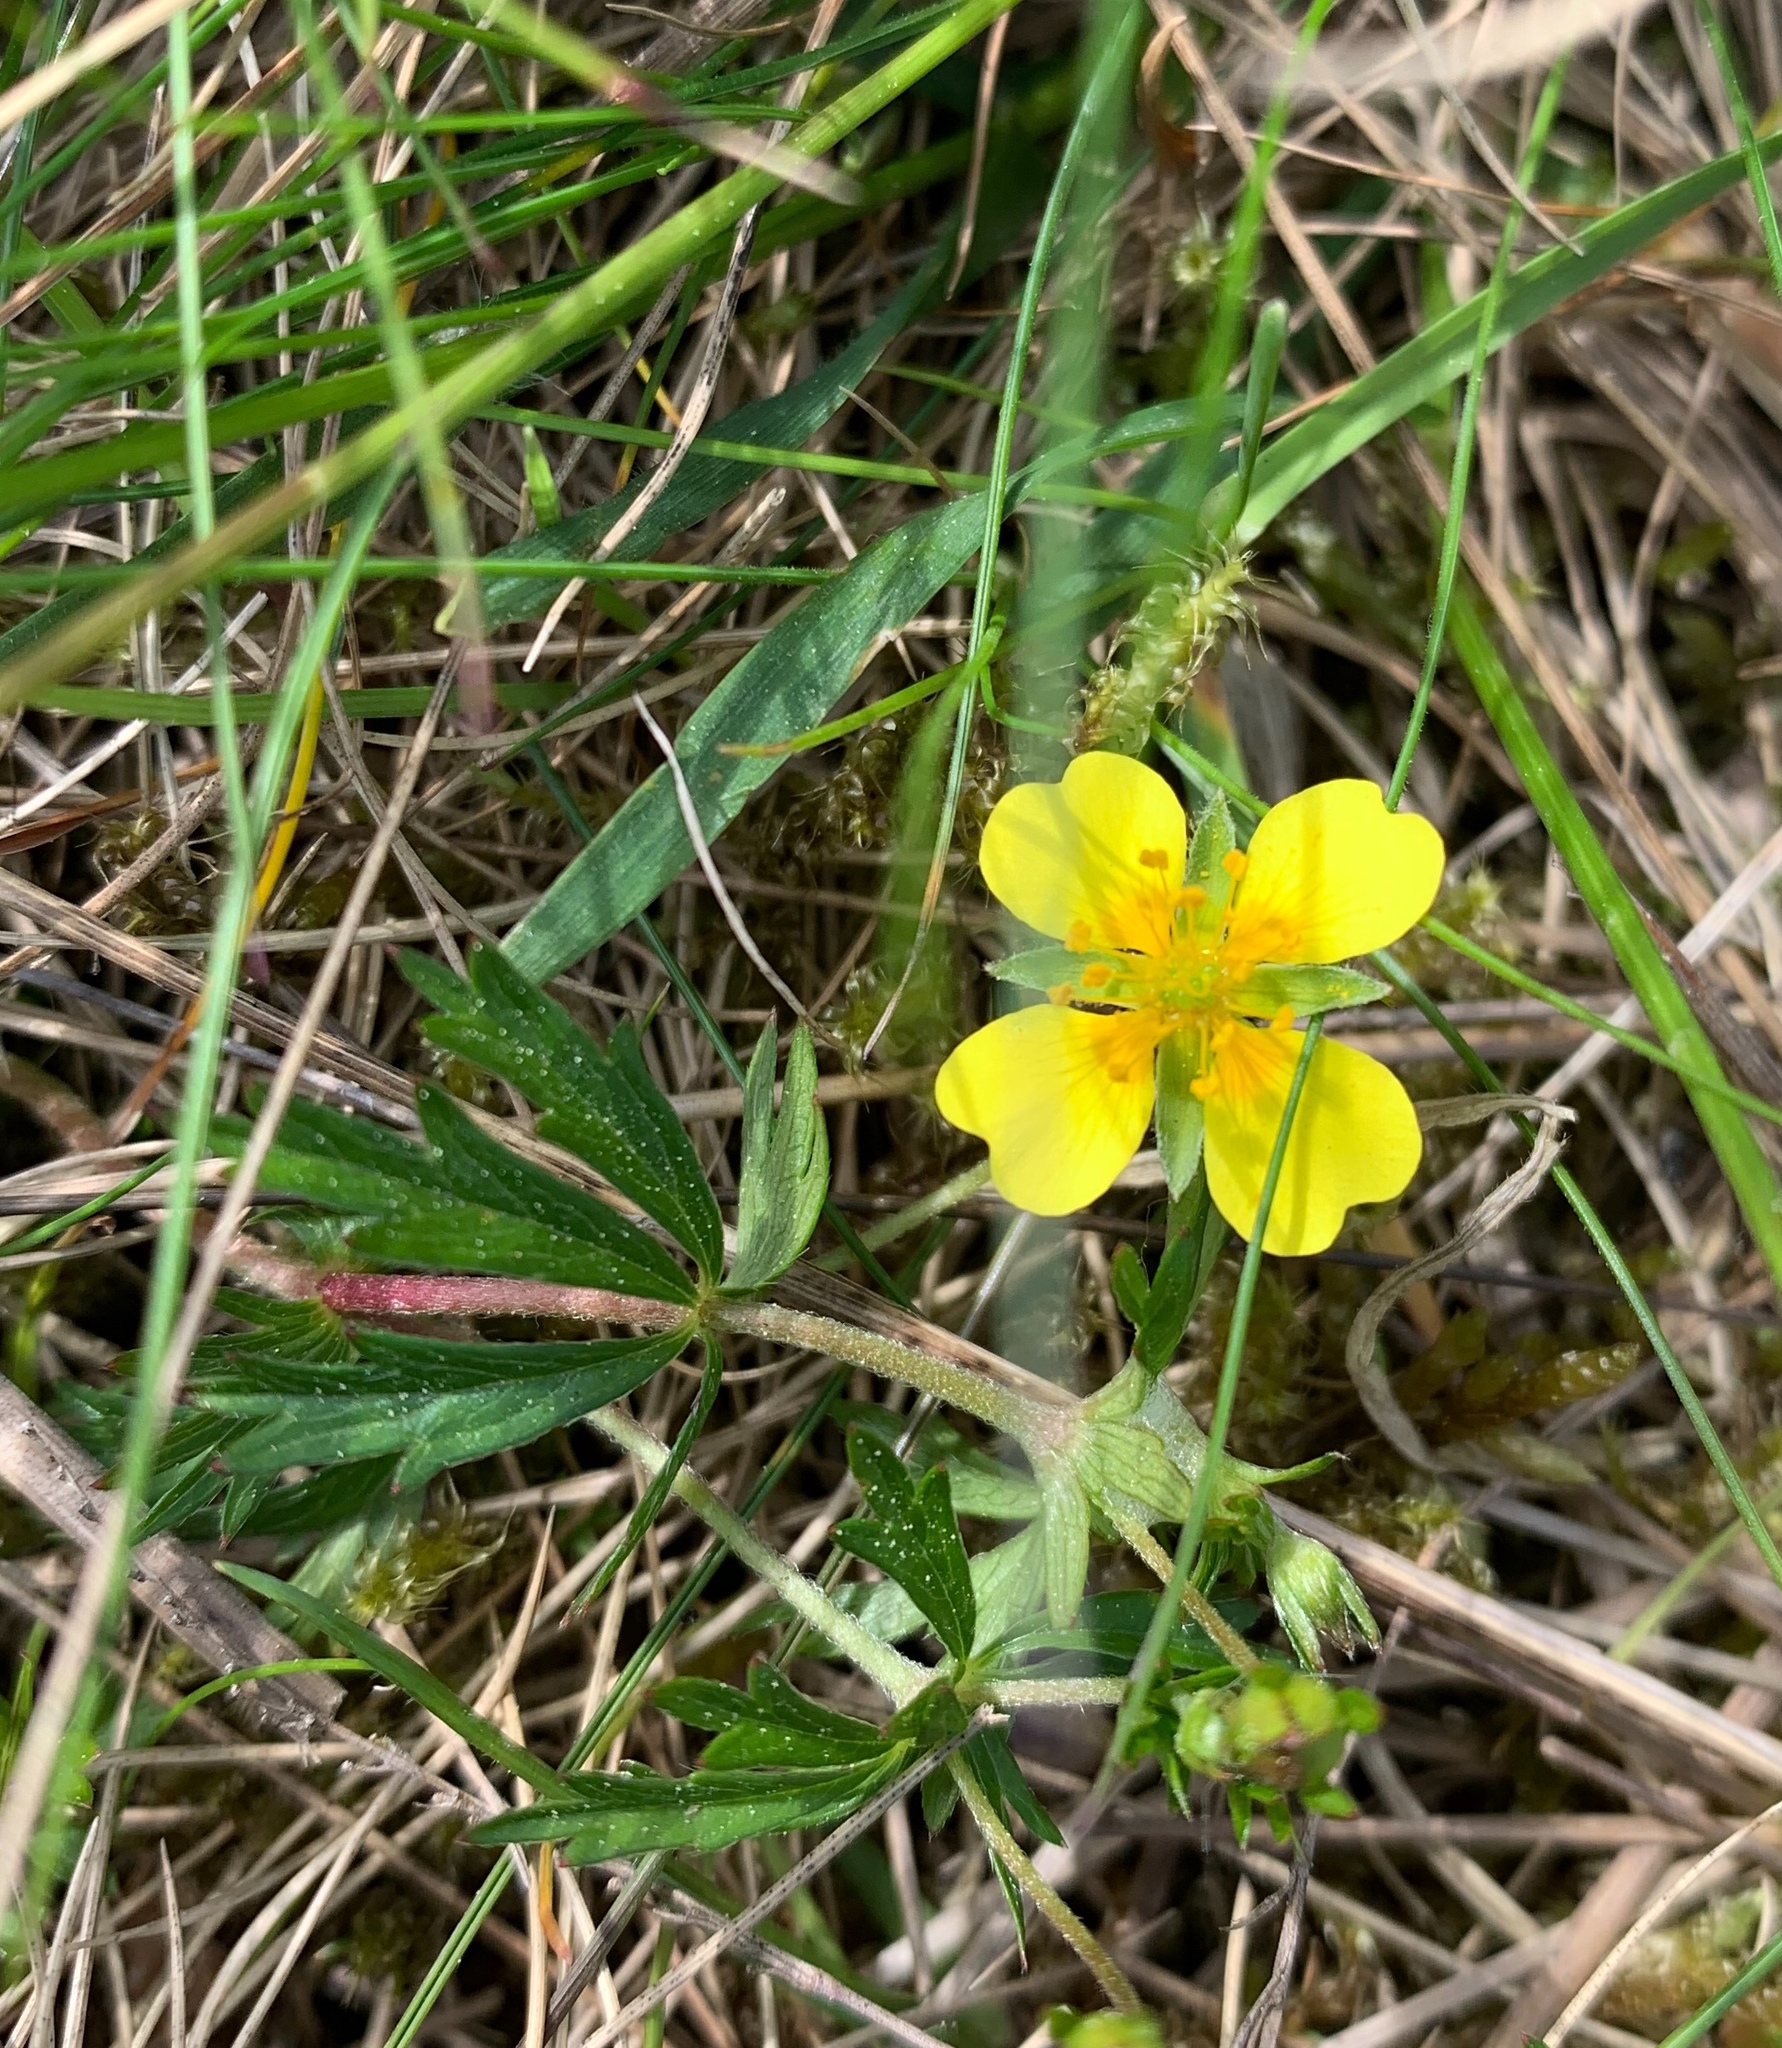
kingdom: Plantae
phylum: Tracheophyta
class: Magnoliopsida
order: Rosales
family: Rosaceae
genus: Potentilla
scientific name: Potentilla erecta
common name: Tormentil
